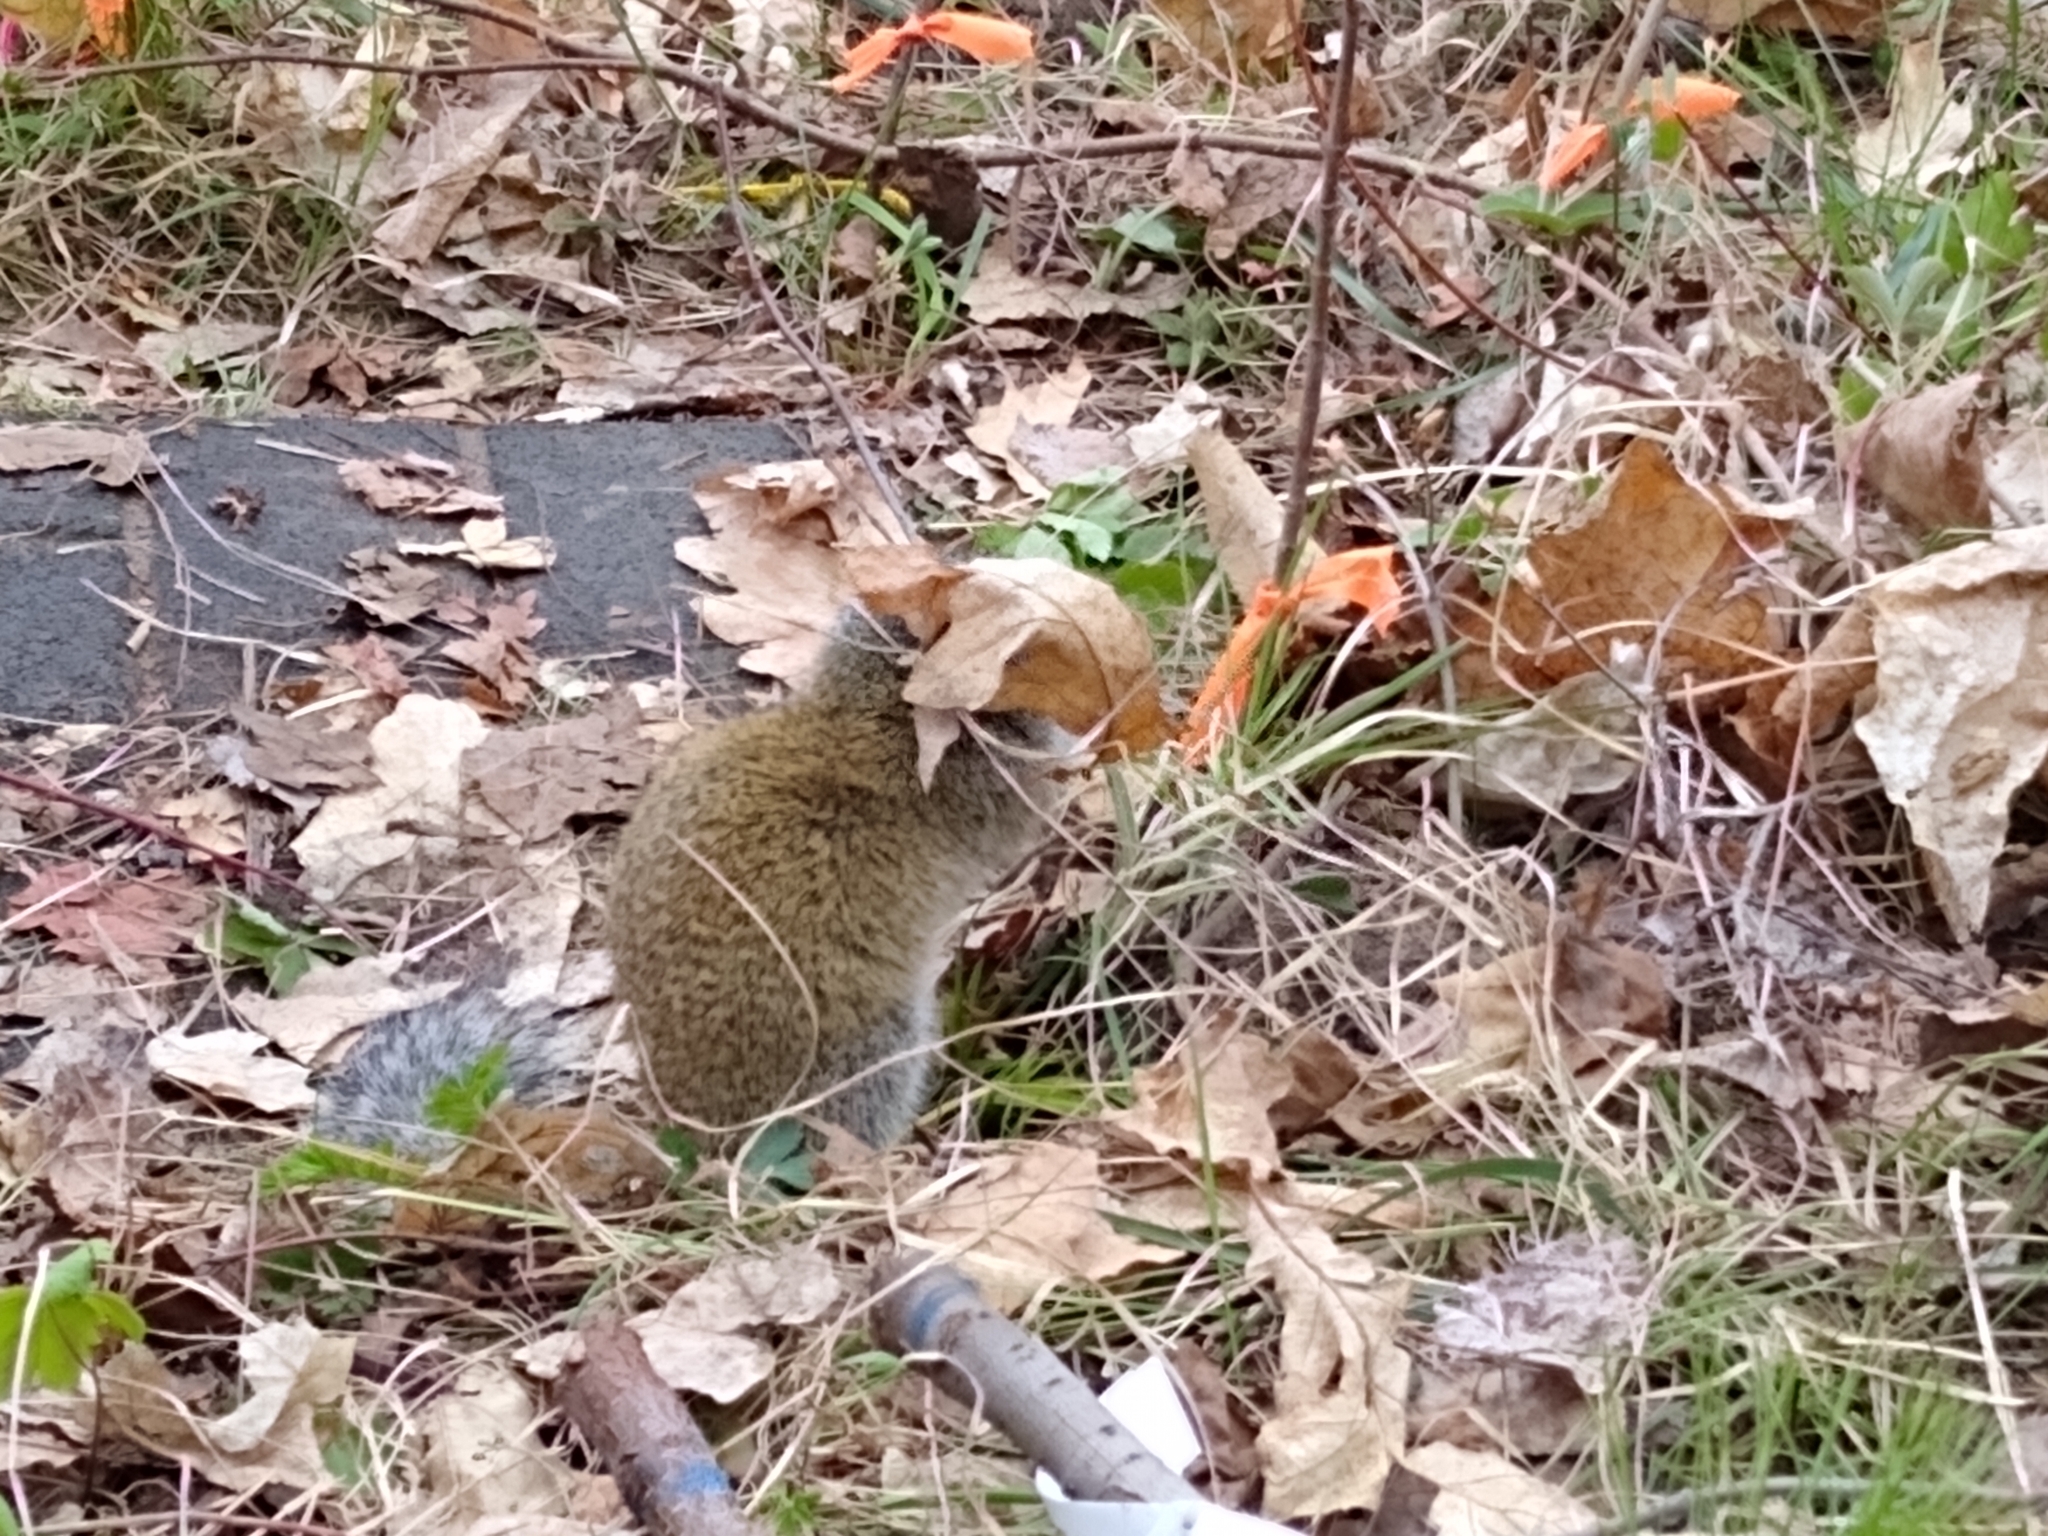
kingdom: Animalia
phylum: Chordata
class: Mammalia
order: Rodentia
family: Sciuridae
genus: Poliocitellus
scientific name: Poliocitellus franklinii
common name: Franklin's ground squirrel
